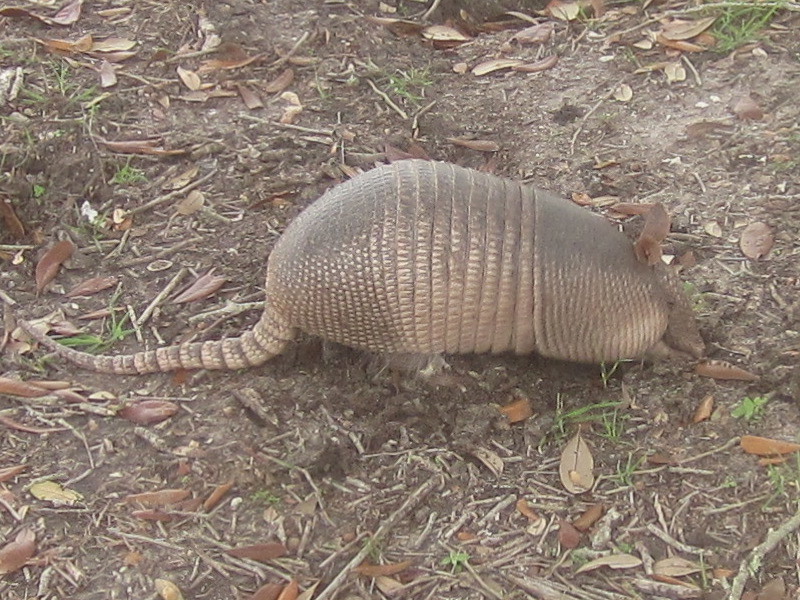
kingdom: Animalia
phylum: Chordata
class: Mammalia
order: Cingulata
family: Dasypodidae
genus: Dasypus
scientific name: Dasypus novemcinctus
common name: Nine-banded armadillo
